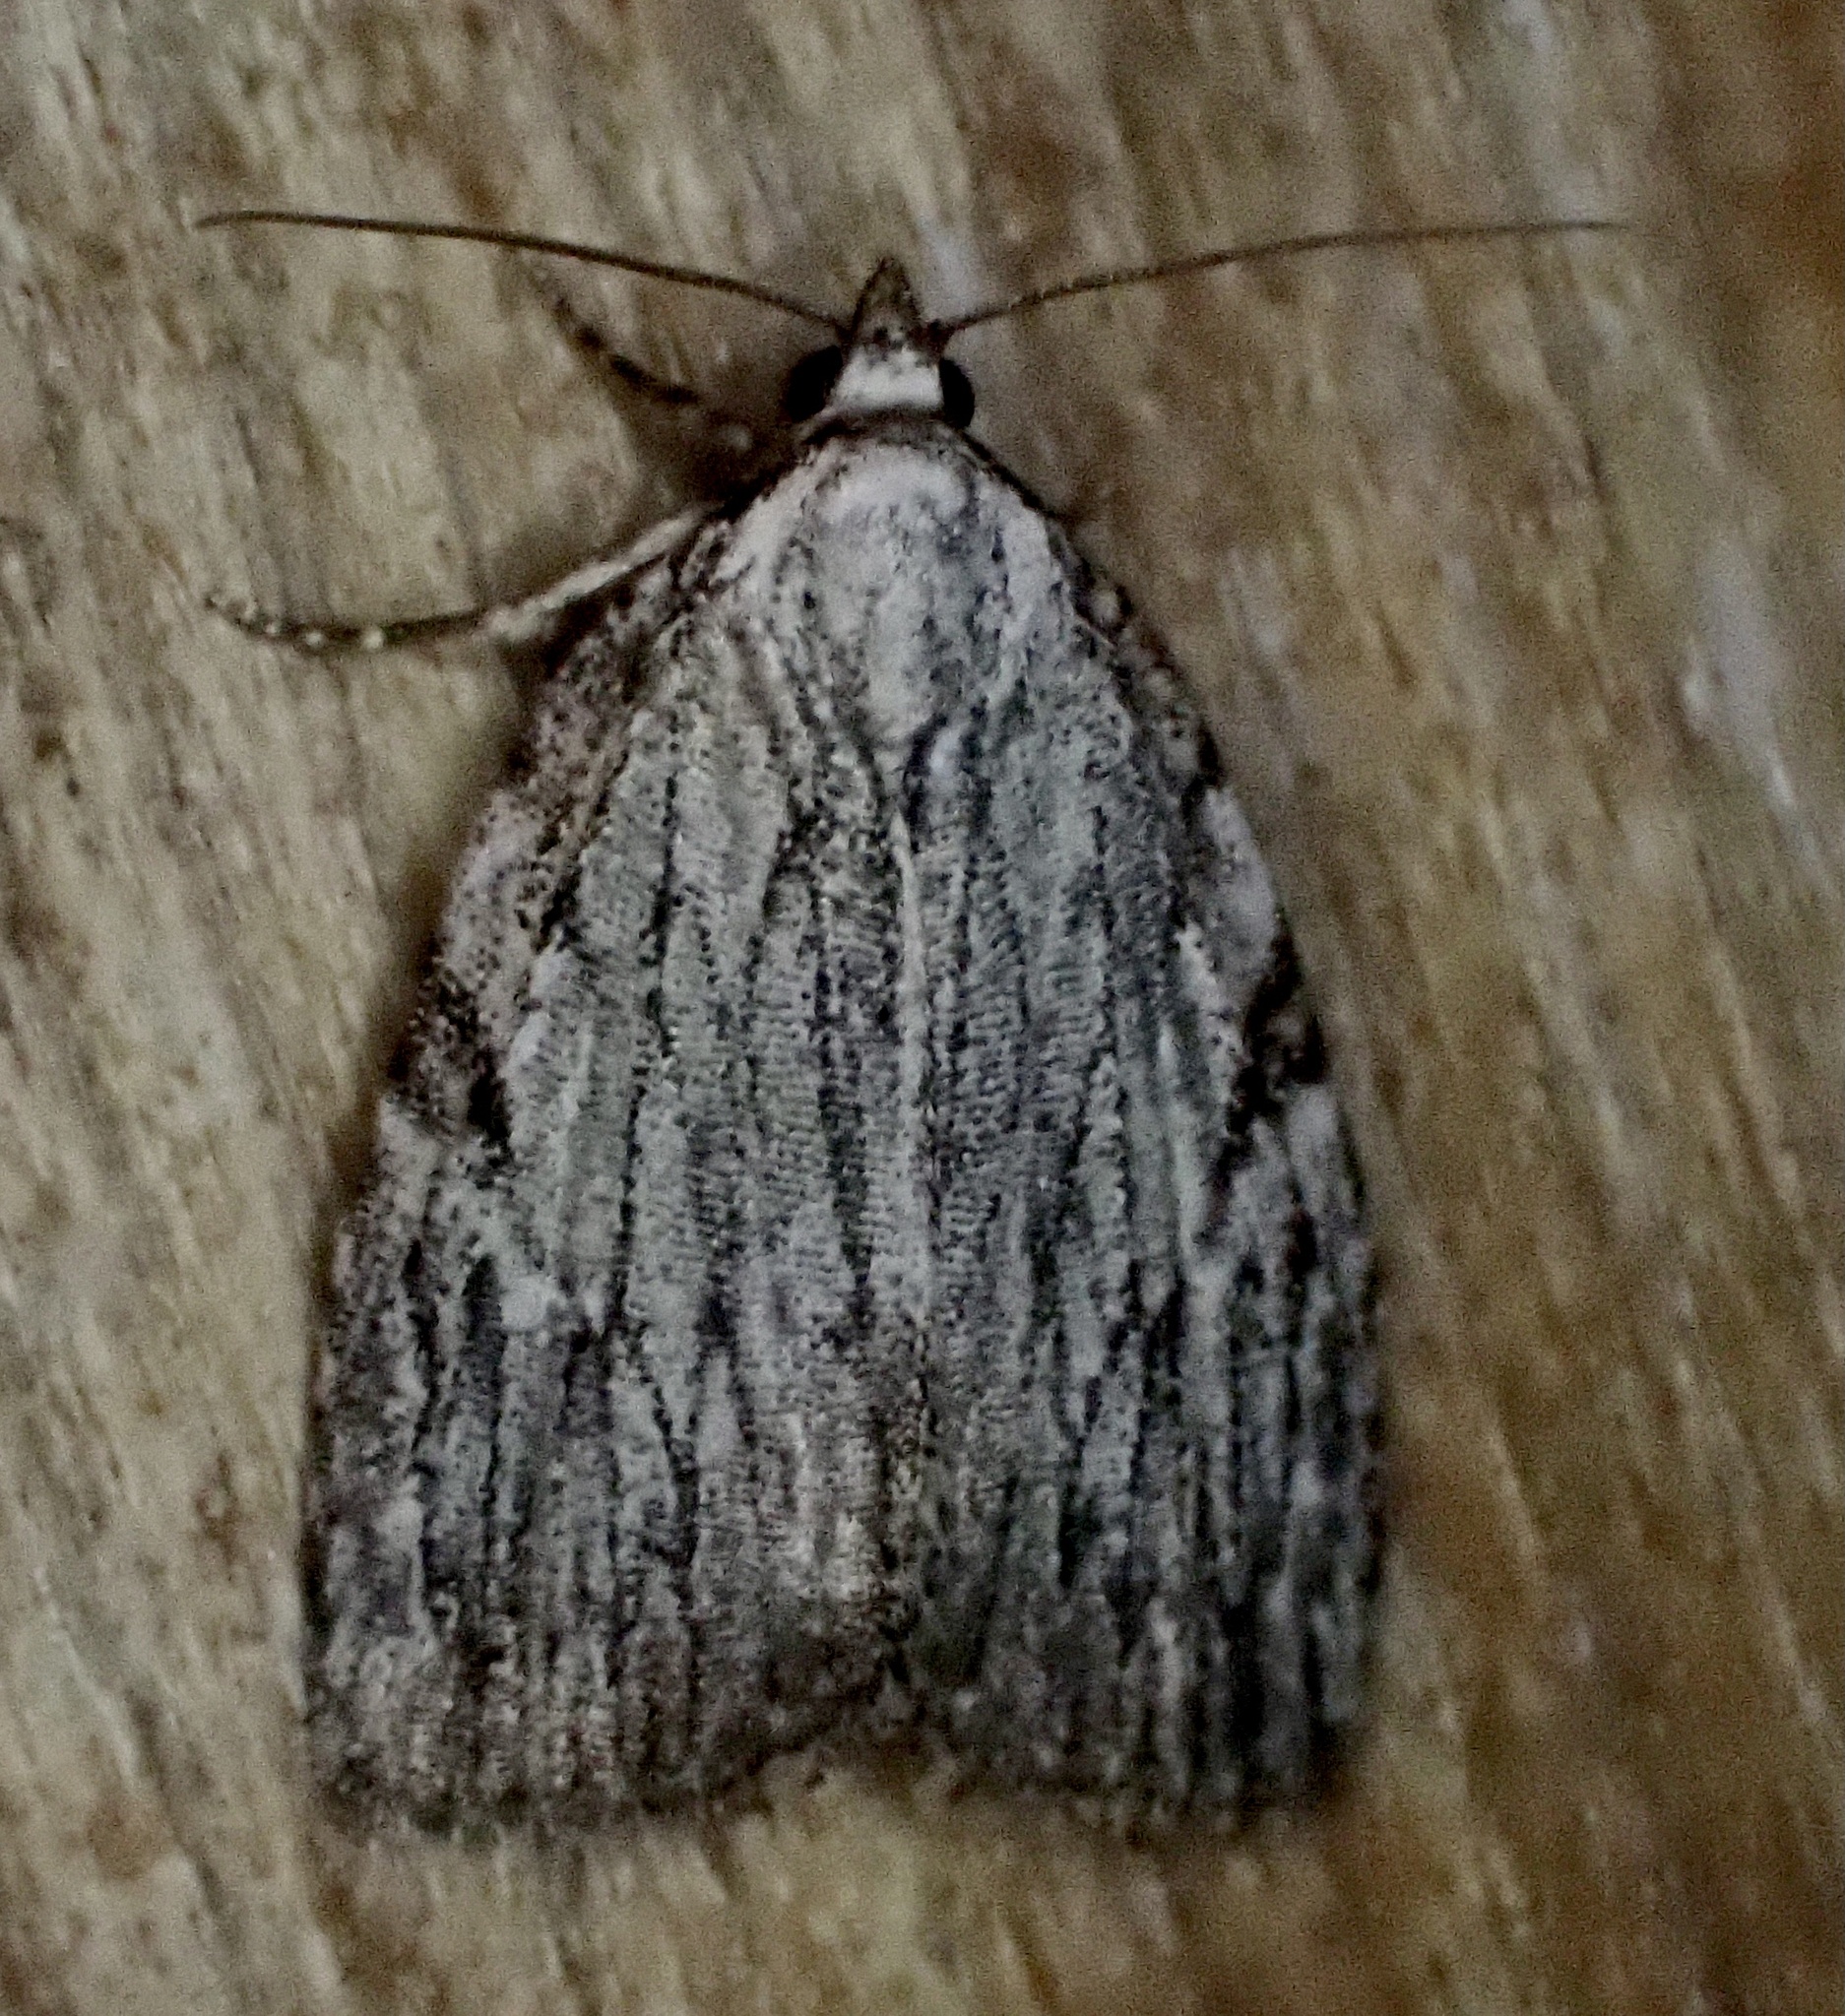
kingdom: Animalia
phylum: Arthropoda
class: Insecta
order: Lepidoptera
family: Noctuidae
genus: Balsa
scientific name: Balsa tristrigella
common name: Three-lined balsa moth
